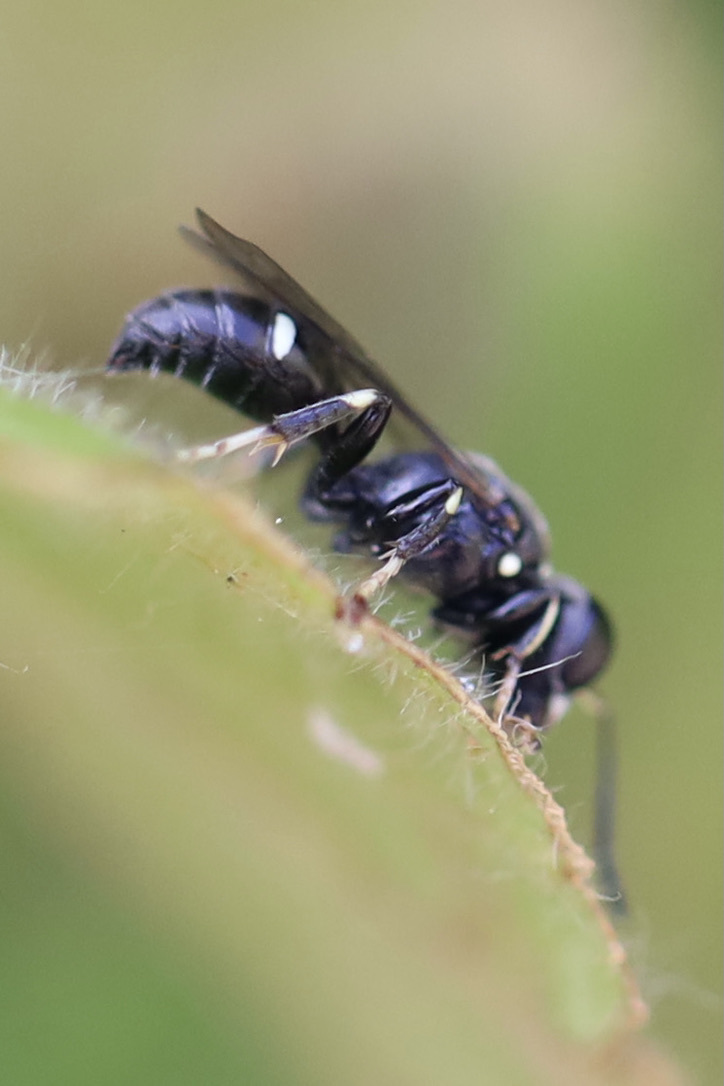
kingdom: Animalia
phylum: Arthropoda
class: Insecta
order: Hymenoptera
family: Crabronidae
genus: Clitemnestra
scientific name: Clitemnestra bipunctata
